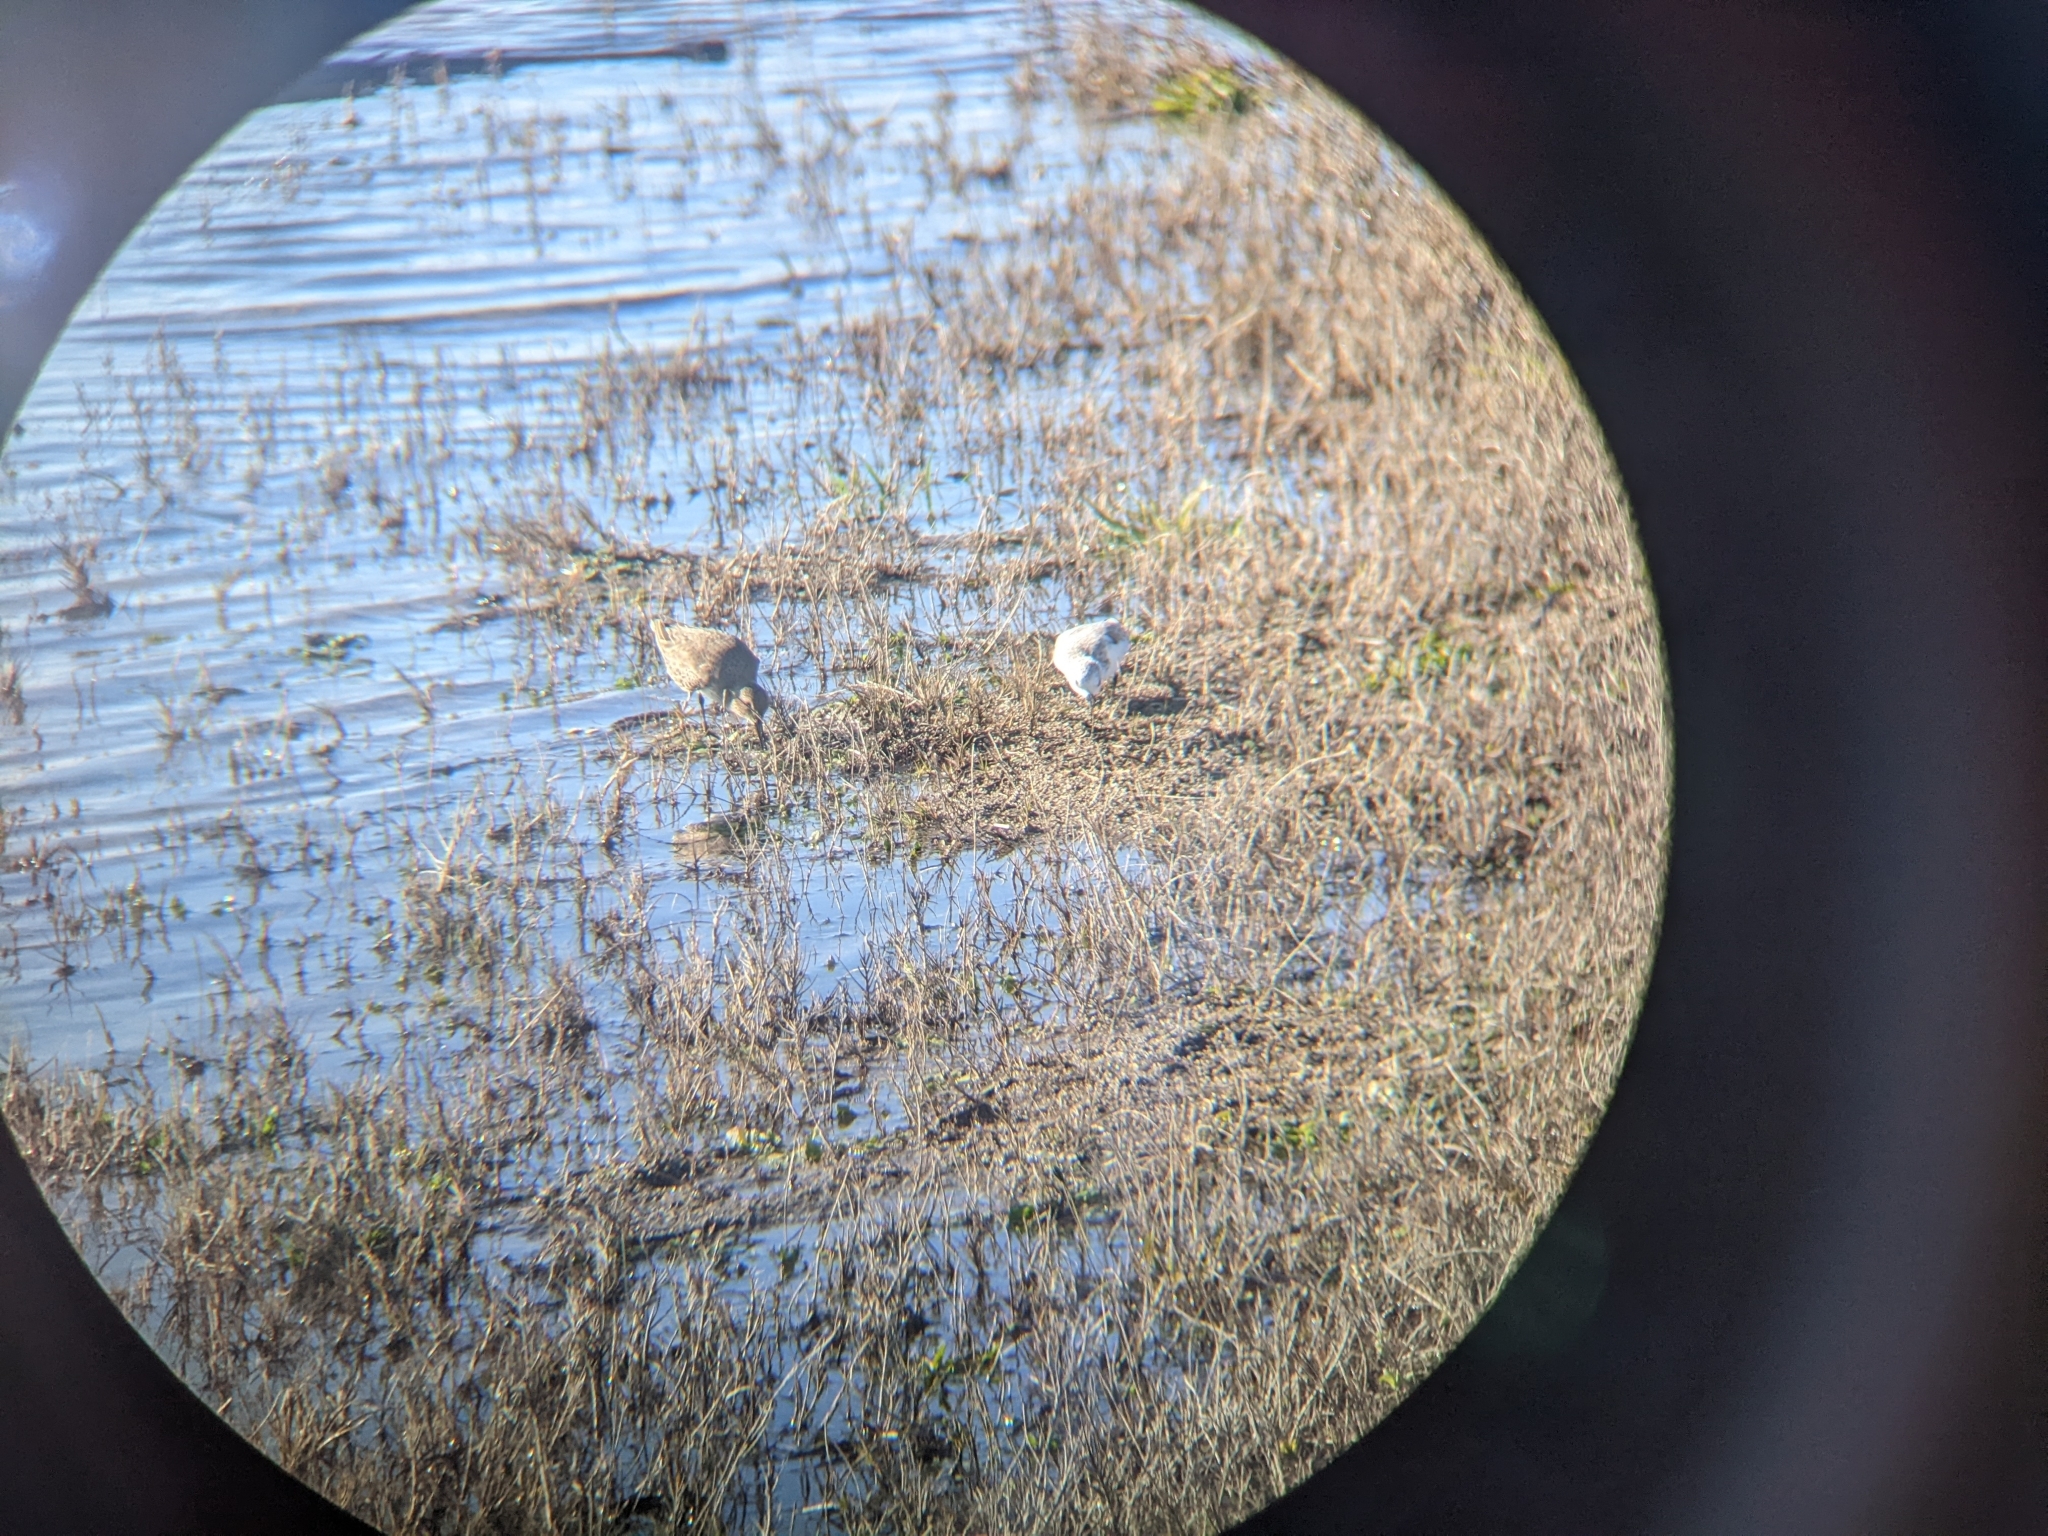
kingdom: Animalia
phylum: Chordata
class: Aves
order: Charadriiformes
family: Scolopacidae
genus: Calidris
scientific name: Calidris alba
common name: Sanderling
